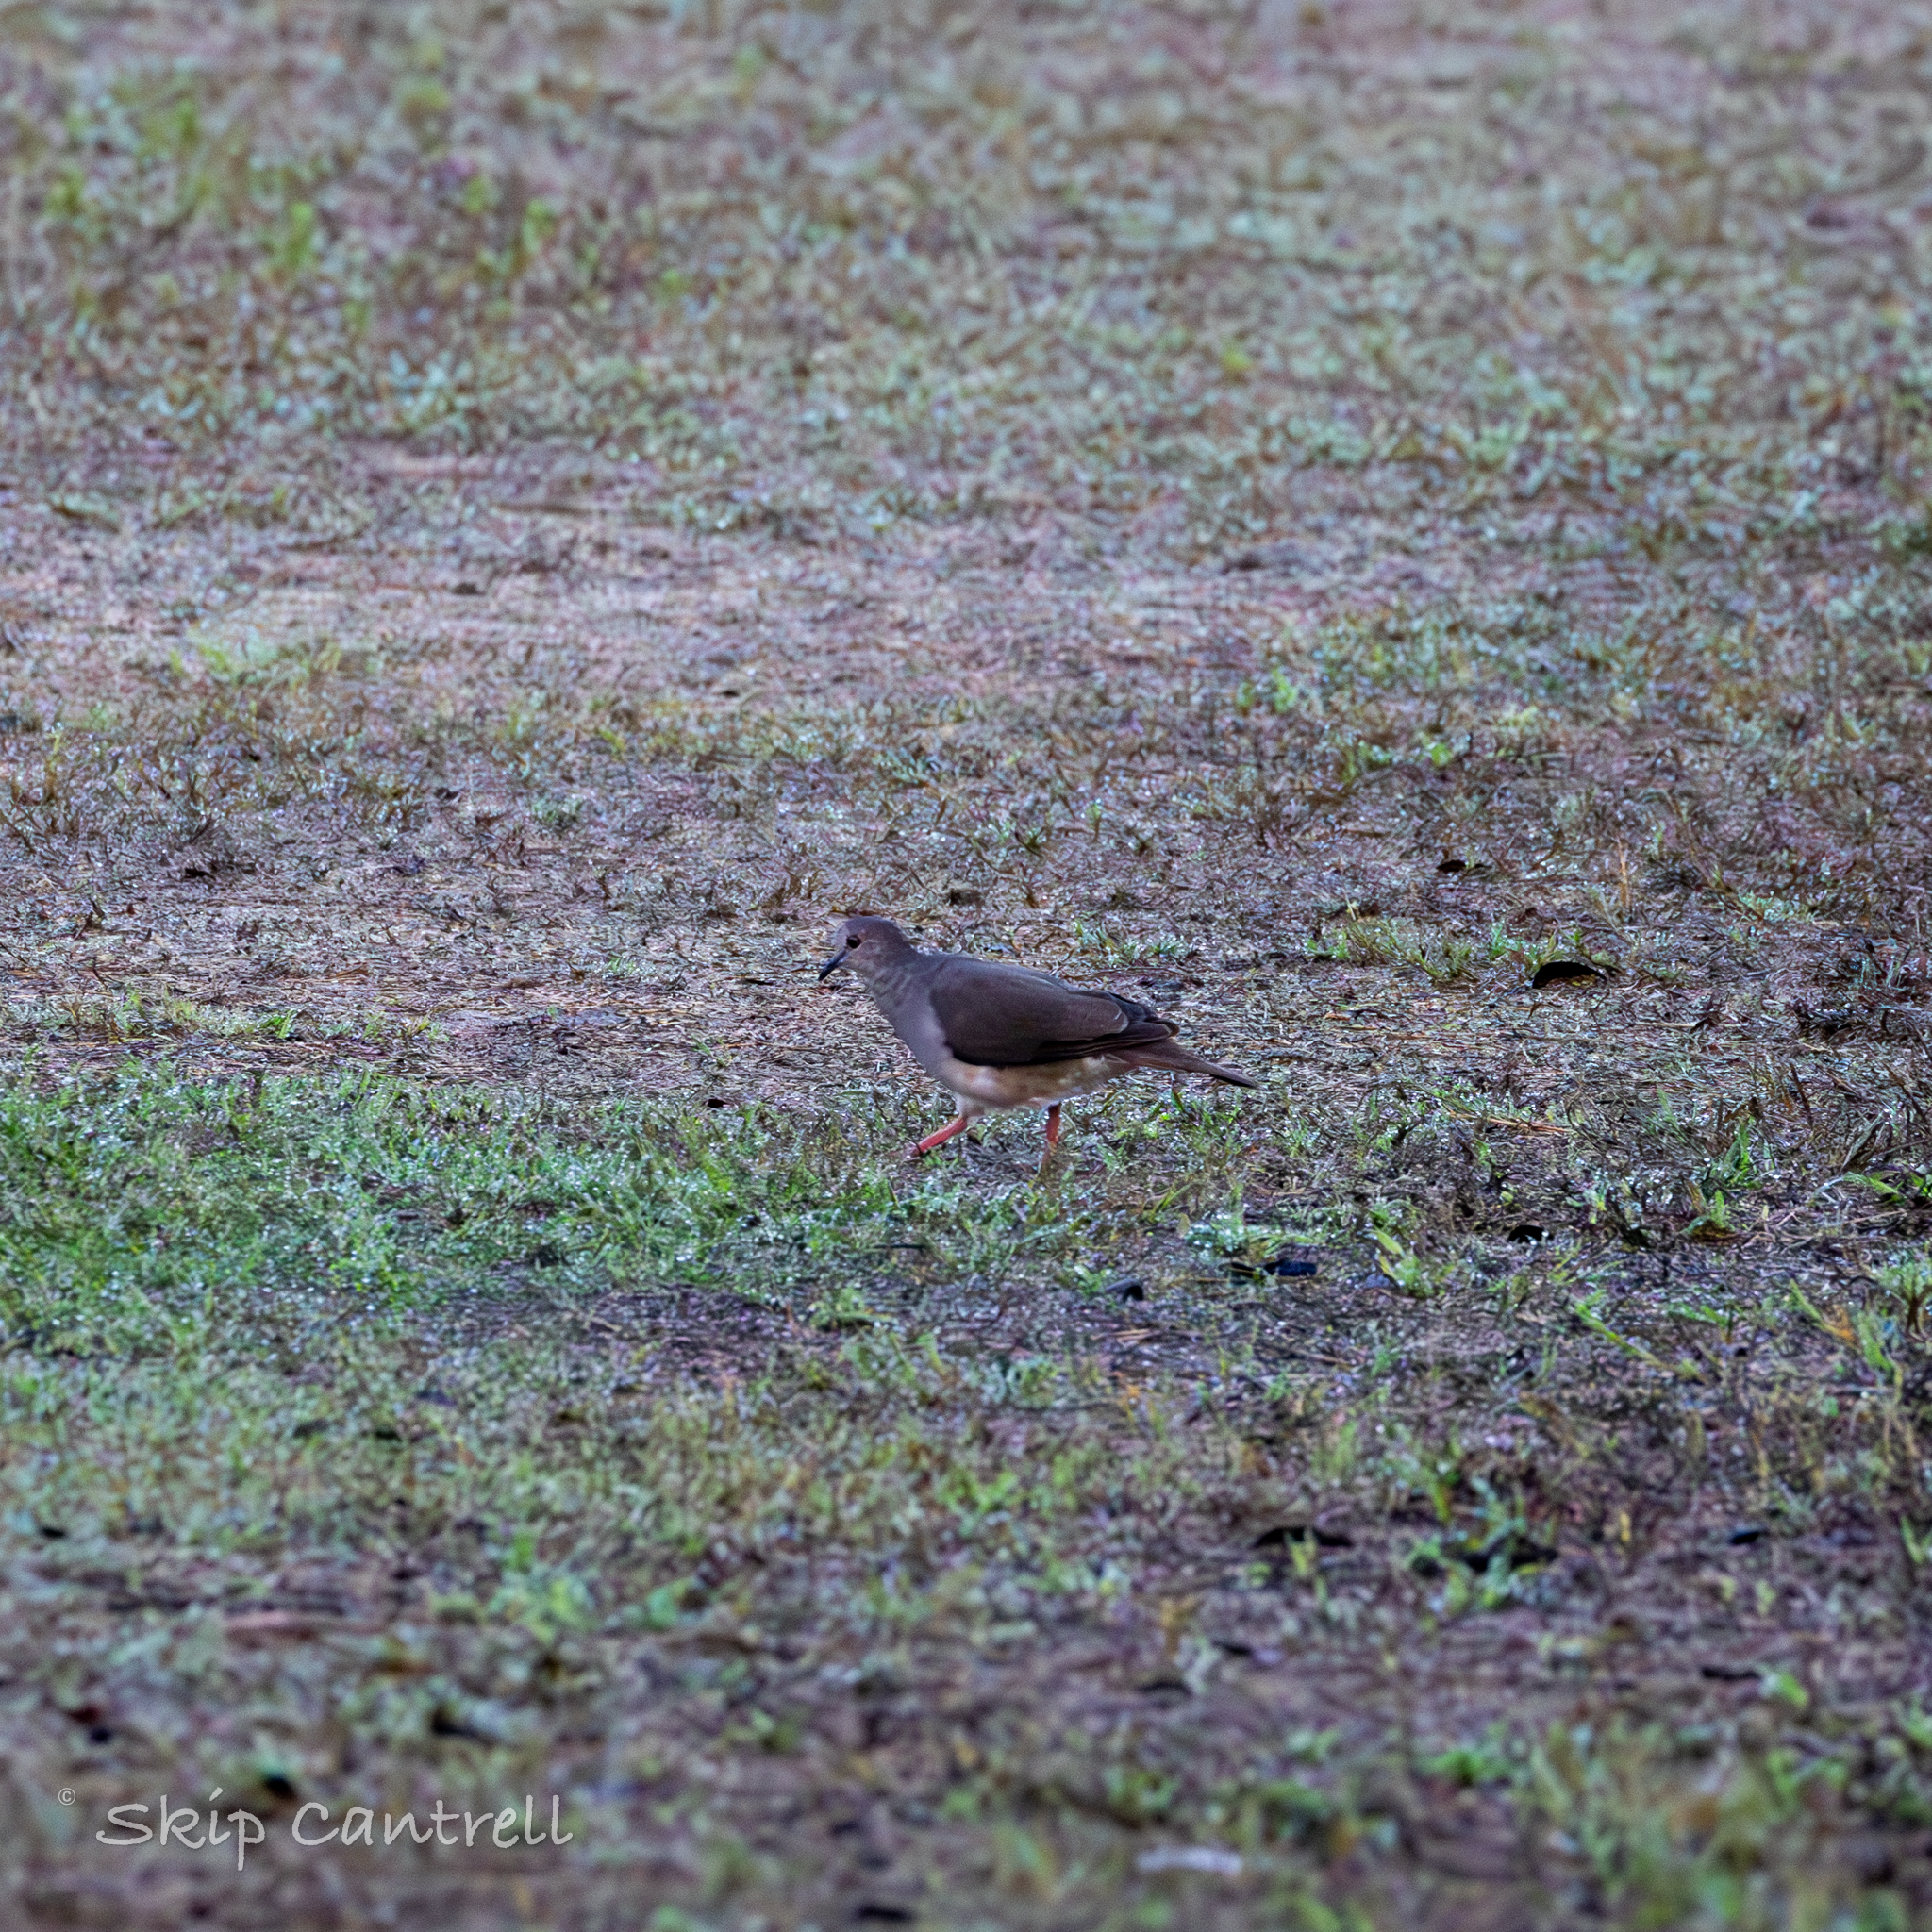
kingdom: Animalia
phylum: Chordata
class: Aves
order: Columbiformes
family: Columbidae
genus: Leptotila
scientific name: Leptotila verreauxi
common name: White-tipped dove
